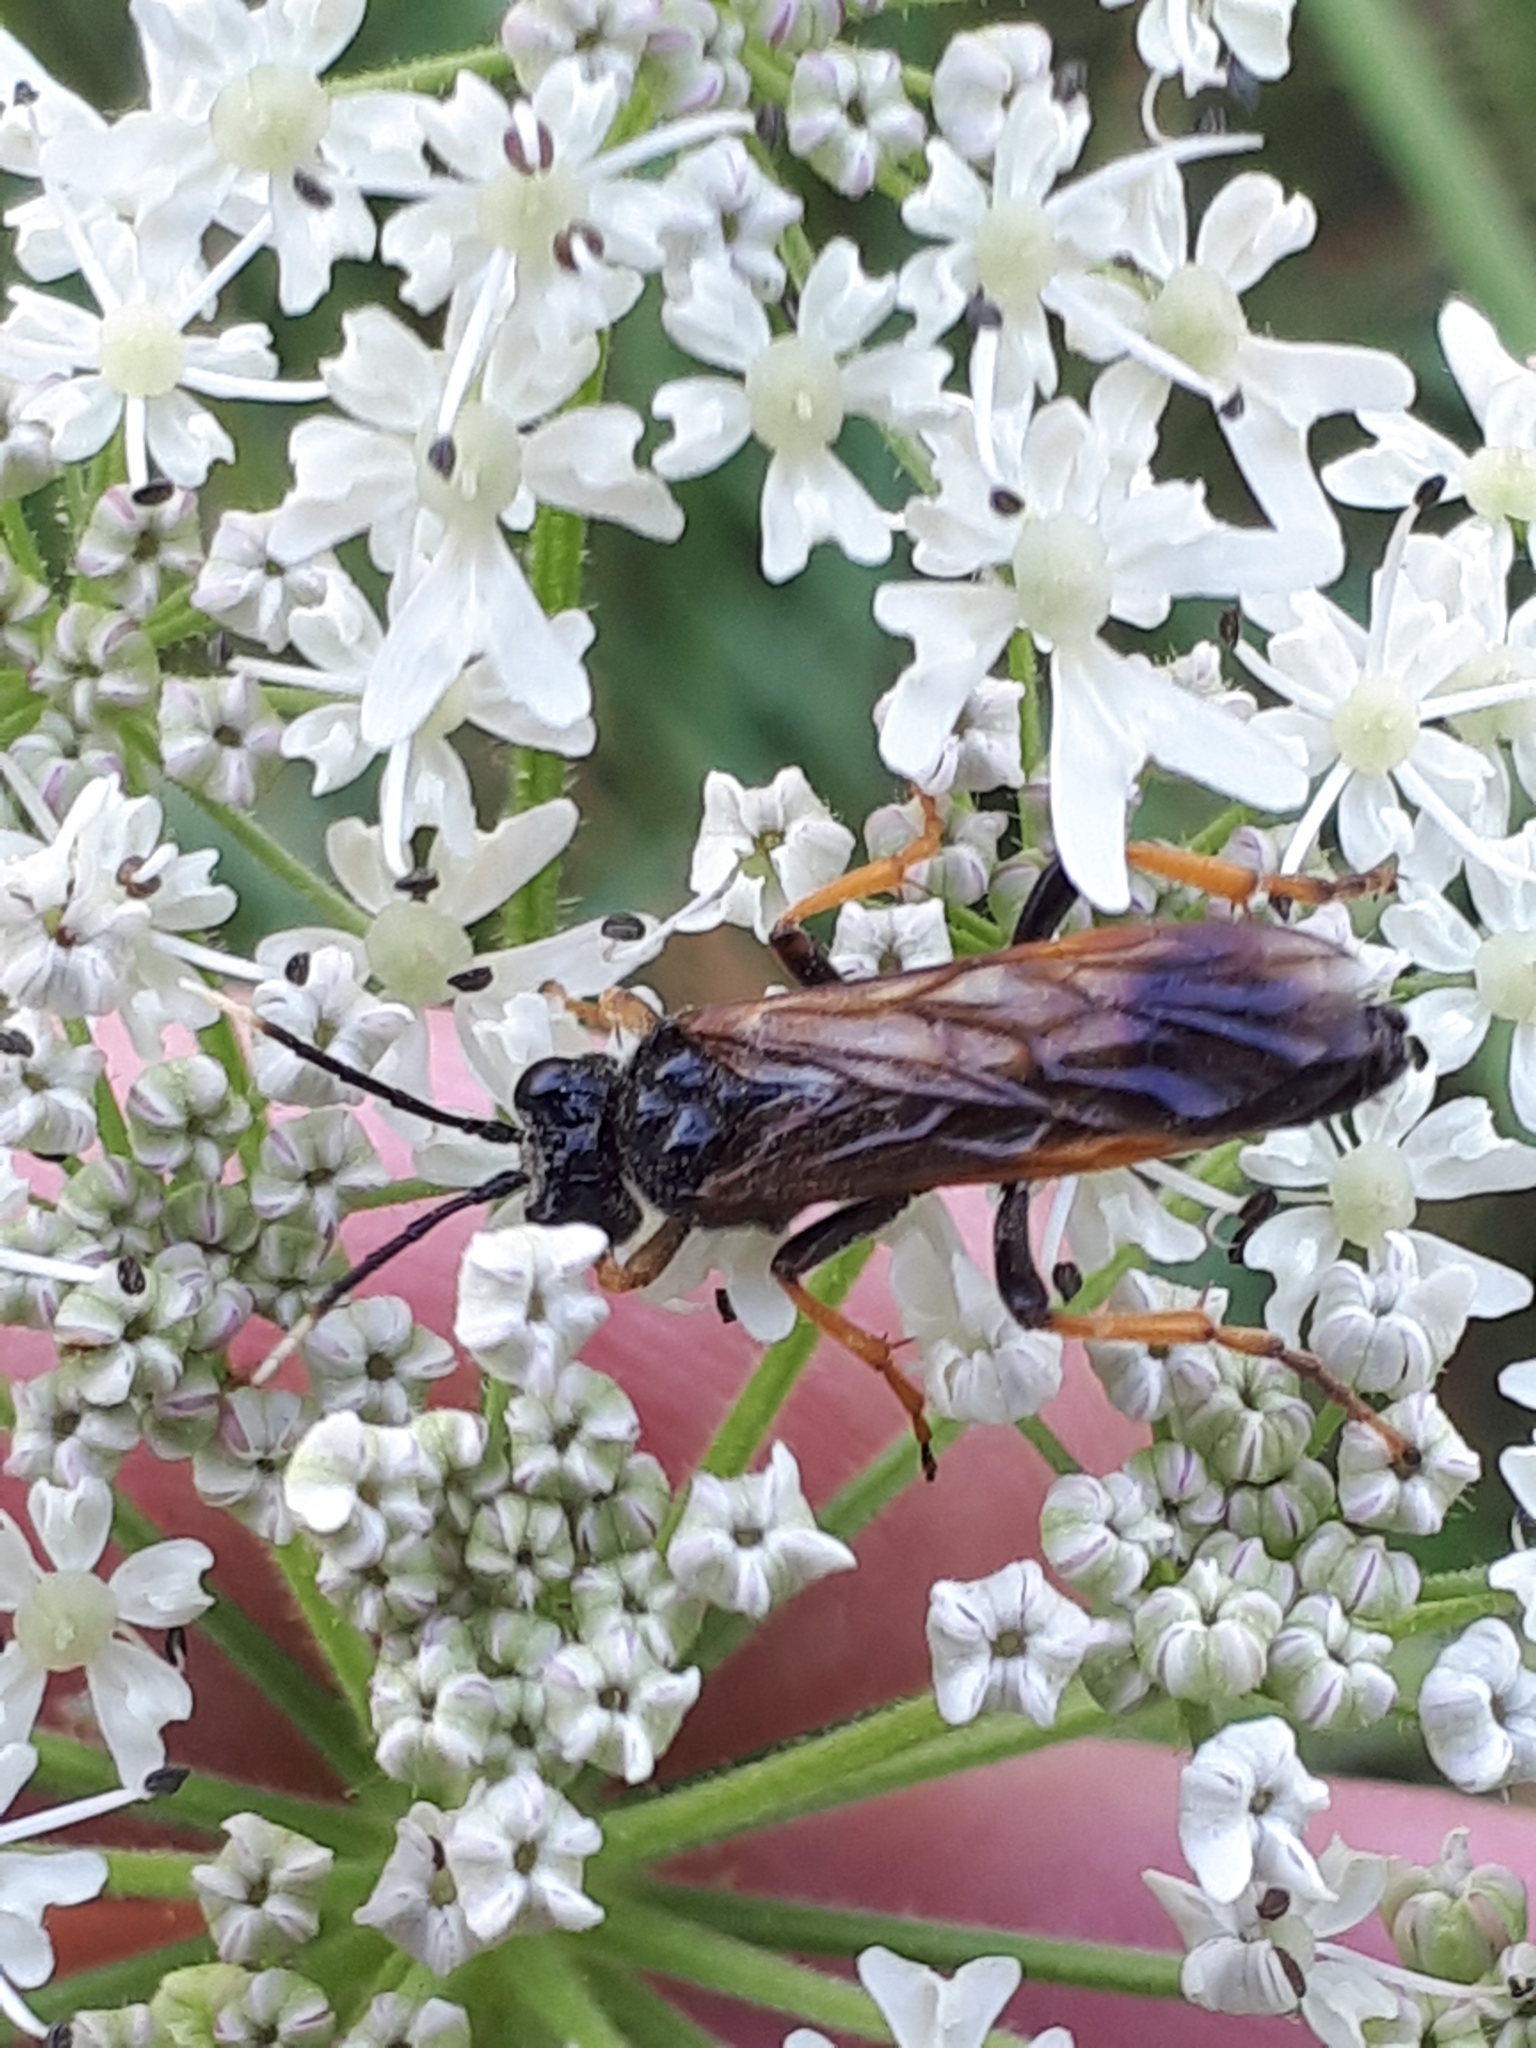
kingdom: Animalia
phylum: Arthropoda
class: Insecta
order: Hymenoptera
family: Tenthredinidae
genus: Tenthredo
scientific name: Tenthredo crassa
